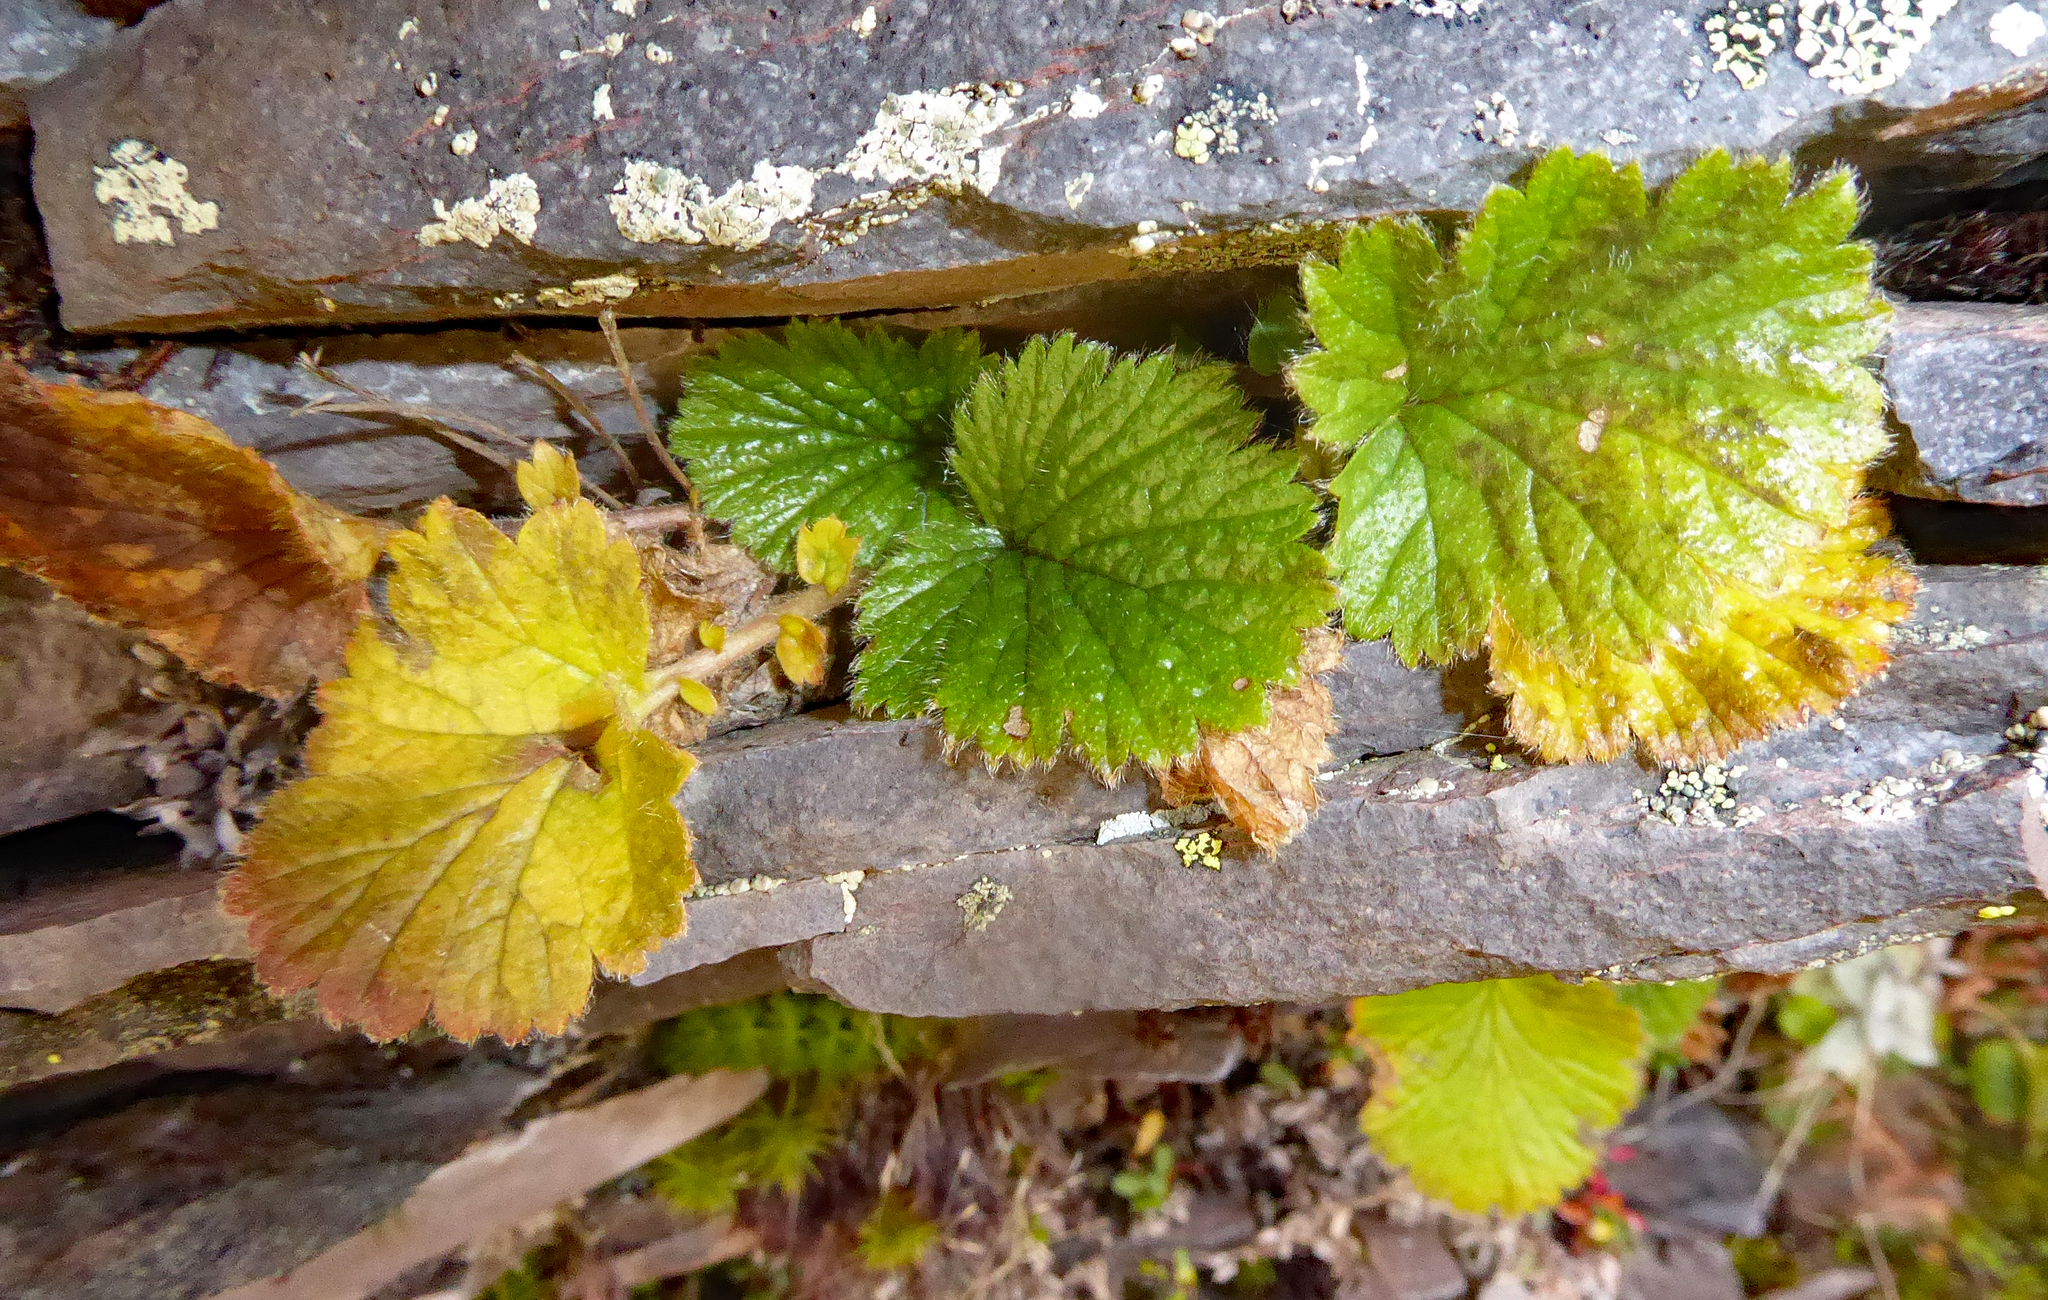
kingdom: Plantae
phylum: Tracheophyta
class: Magnoliopsida
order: Rosales
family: Rosaceae
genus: Geum
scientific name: Geum cockaynei
